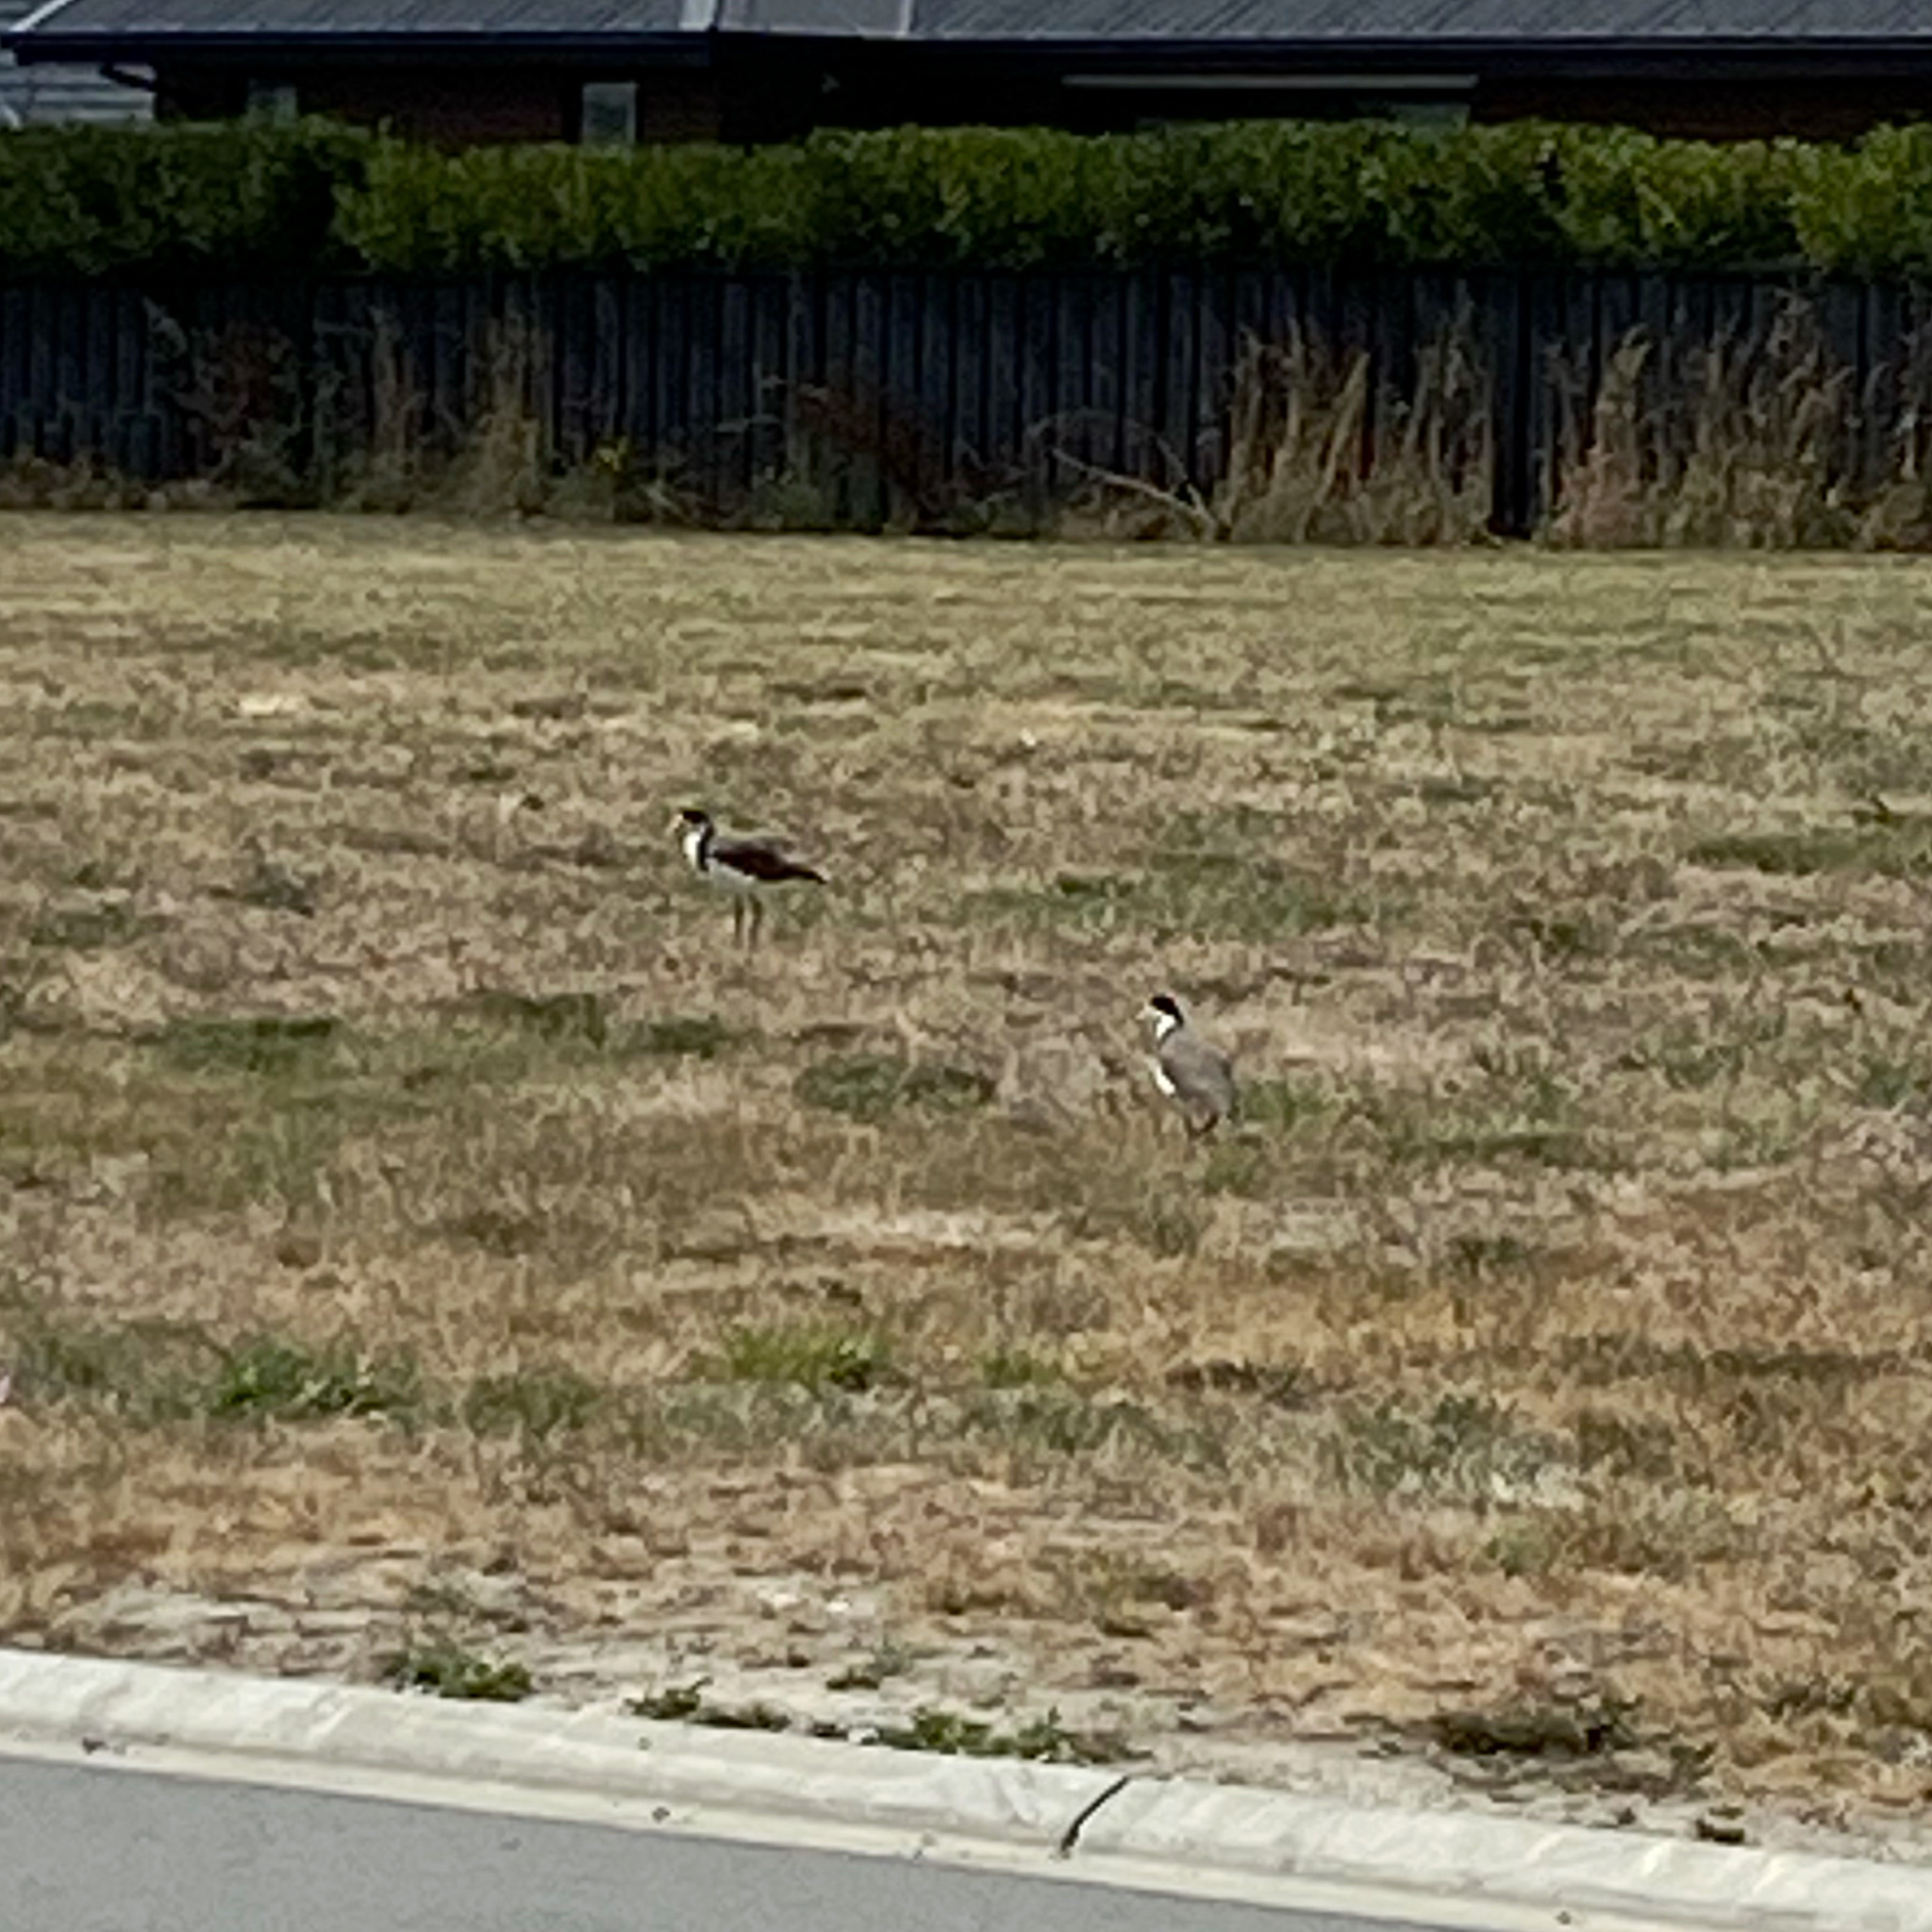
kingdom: Animalia
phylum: Chordata
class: Aves
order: Charadriiformes
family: Charadriidae
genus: Vanellus
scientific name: Vanellus miles
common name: Masked lapwing
